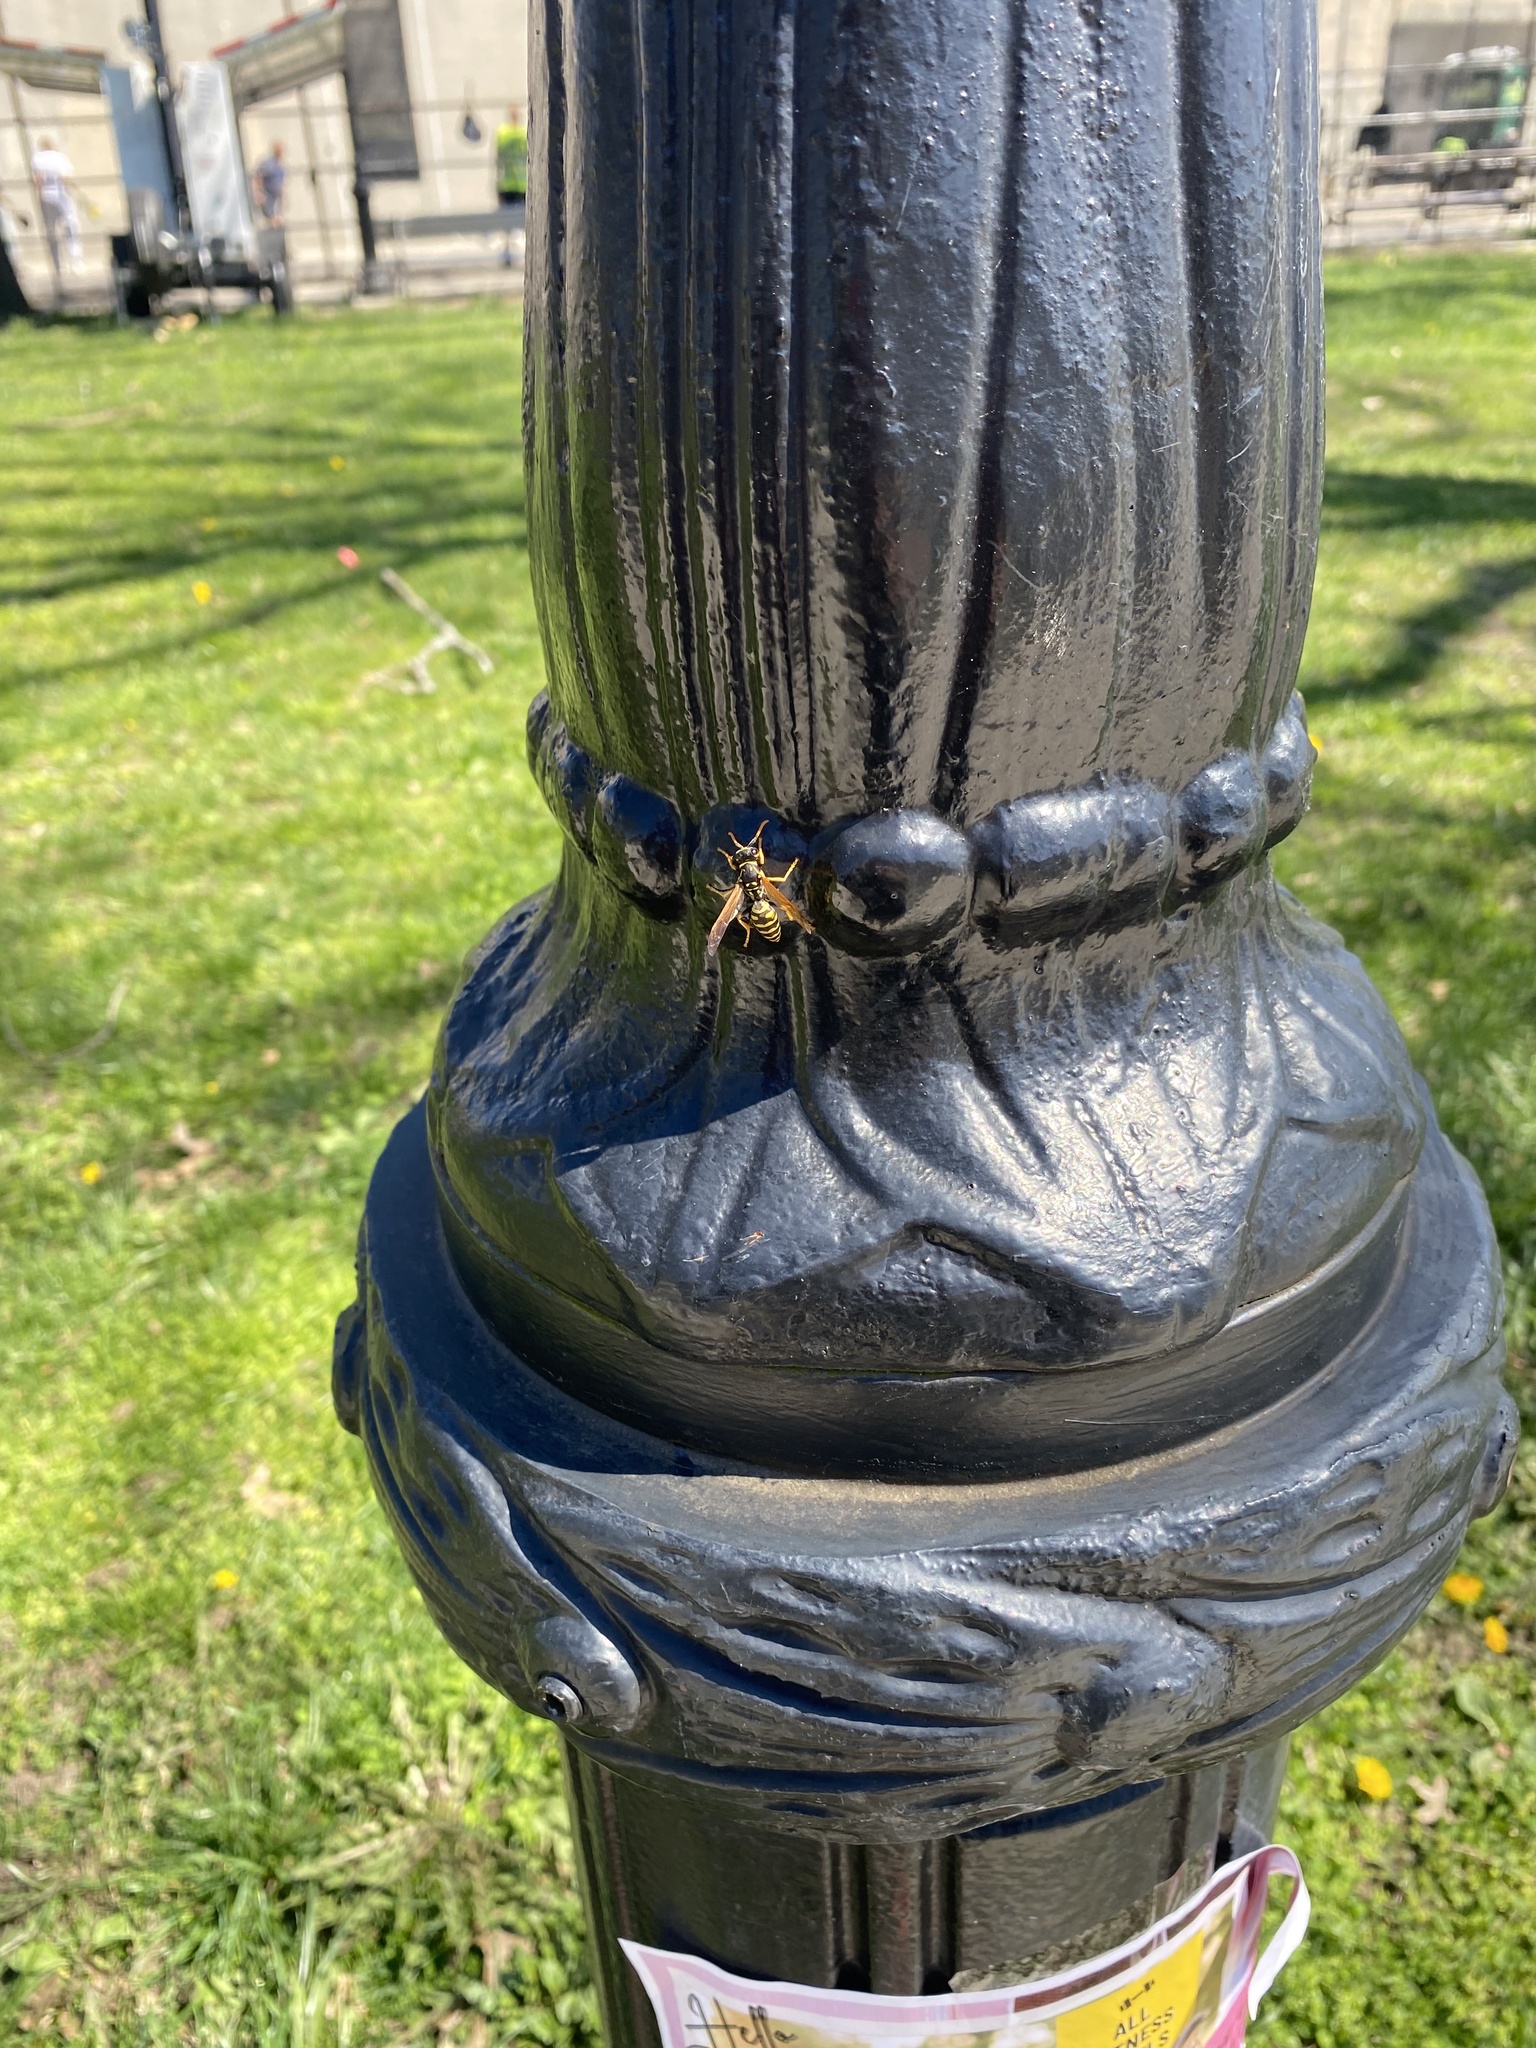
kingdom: Animalia
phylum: Arthropoda
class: Insecta
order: Hymenoptera
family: Eumenidae
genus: Polistes
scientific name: Polistes dominula
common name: Paper wasp
